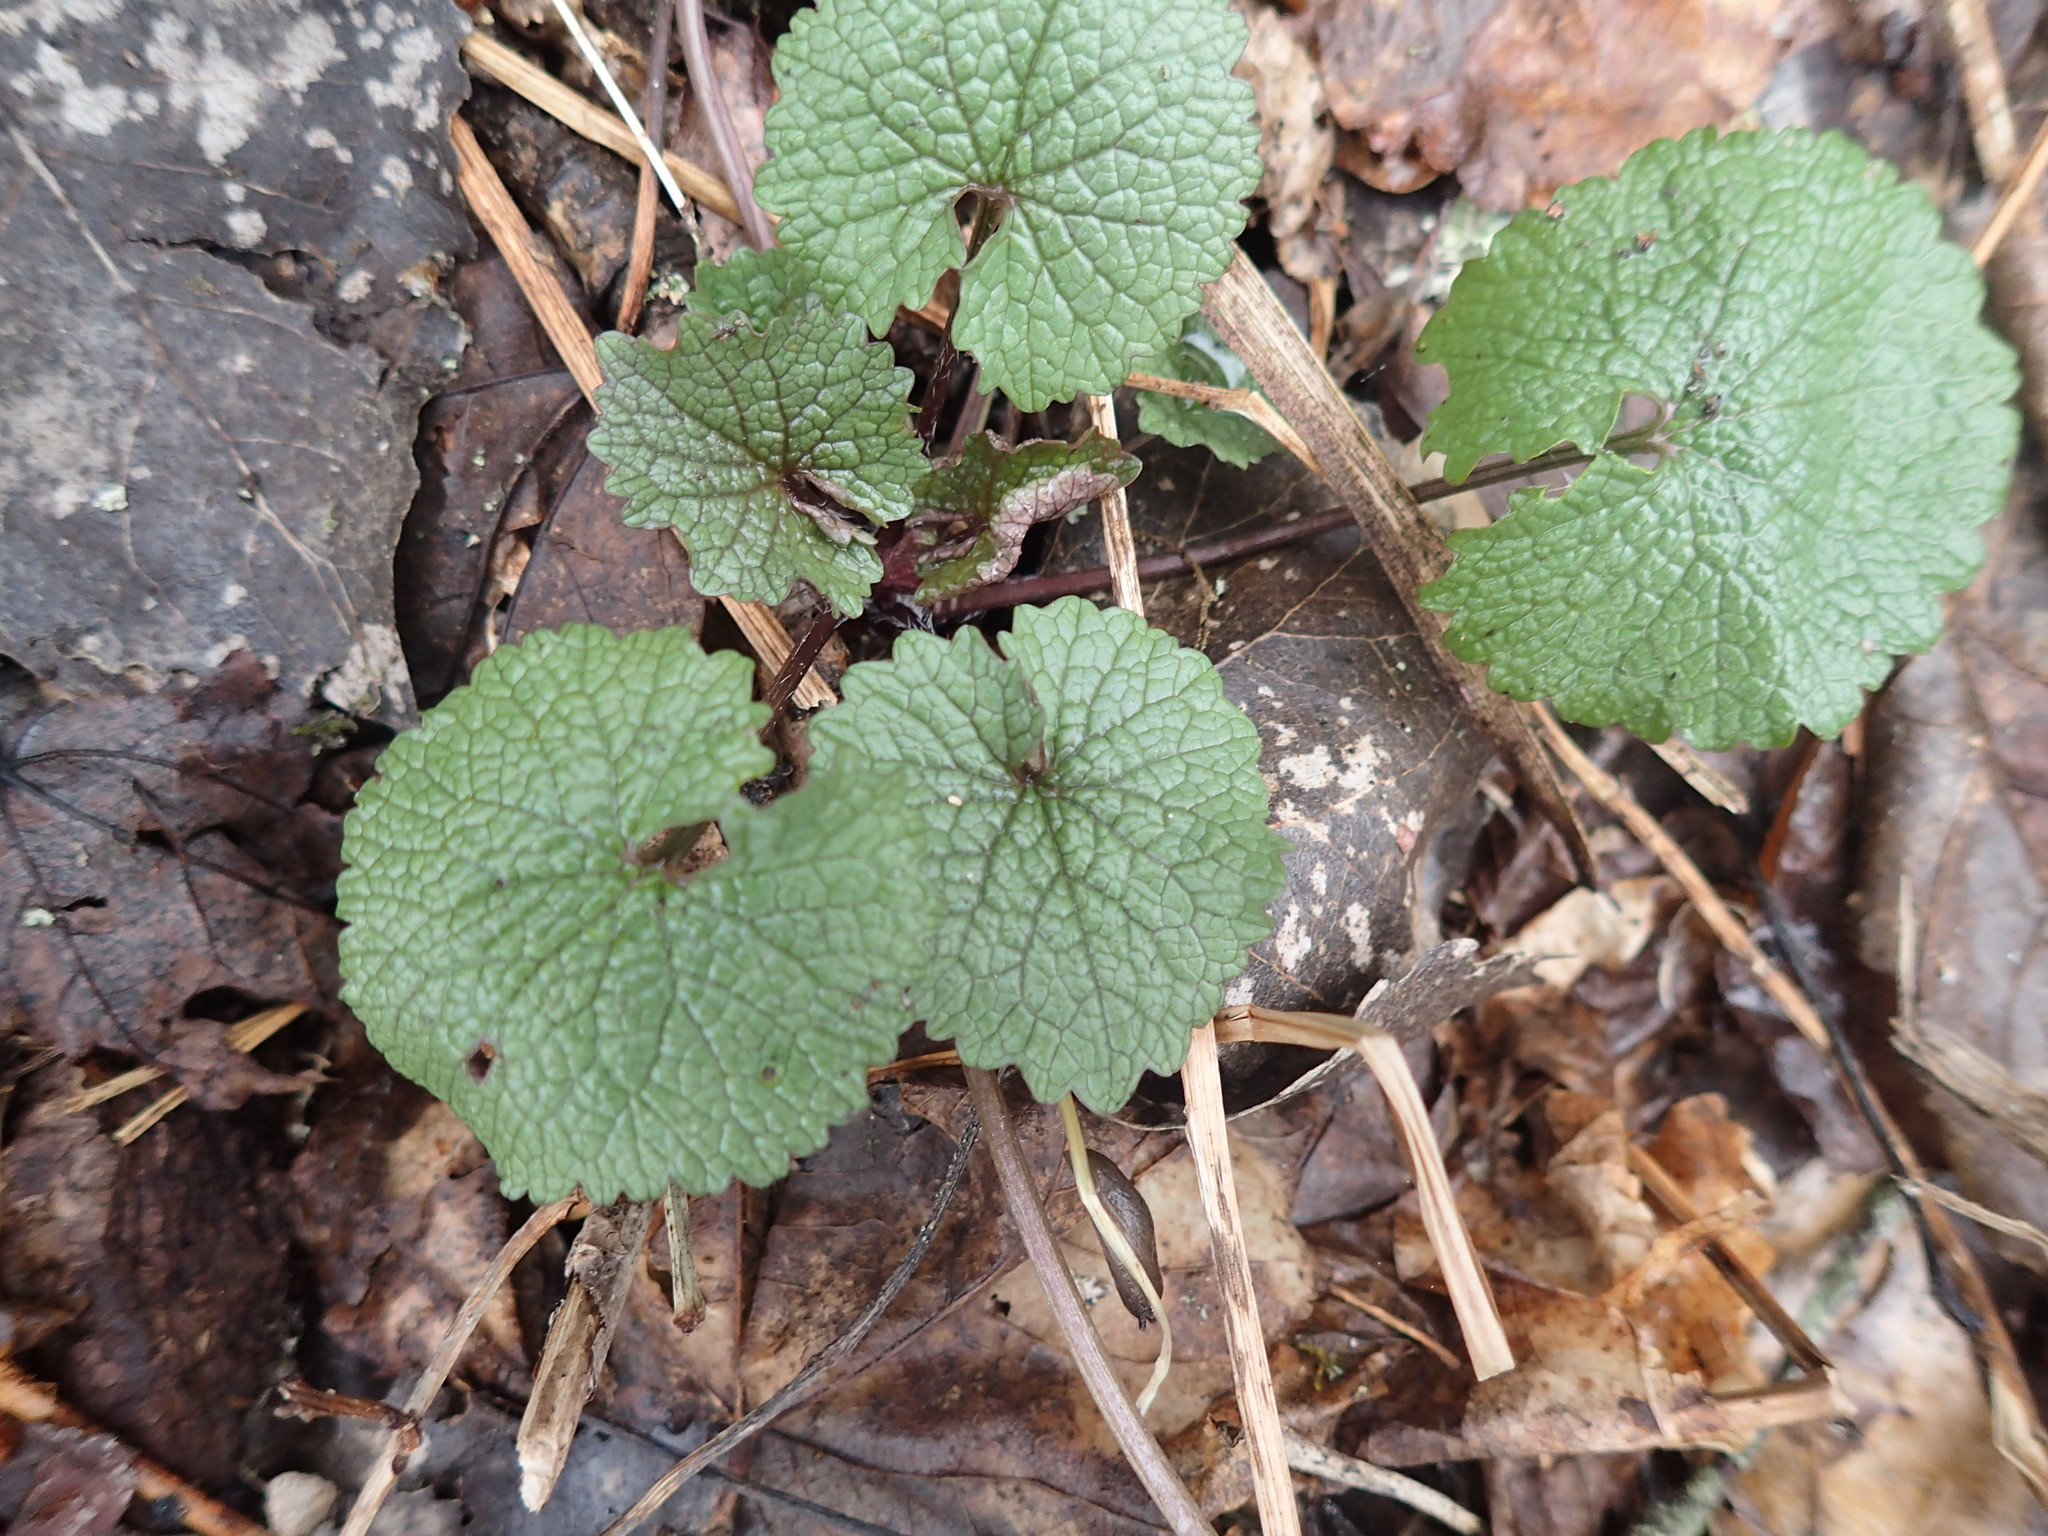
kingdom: Plantae
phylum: Tracheophyta
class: Magnoliopsida
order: Brassicales
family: Brassicaceae
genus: Alliaria
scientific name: Alliaria petiolata
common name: Garlic mustard
